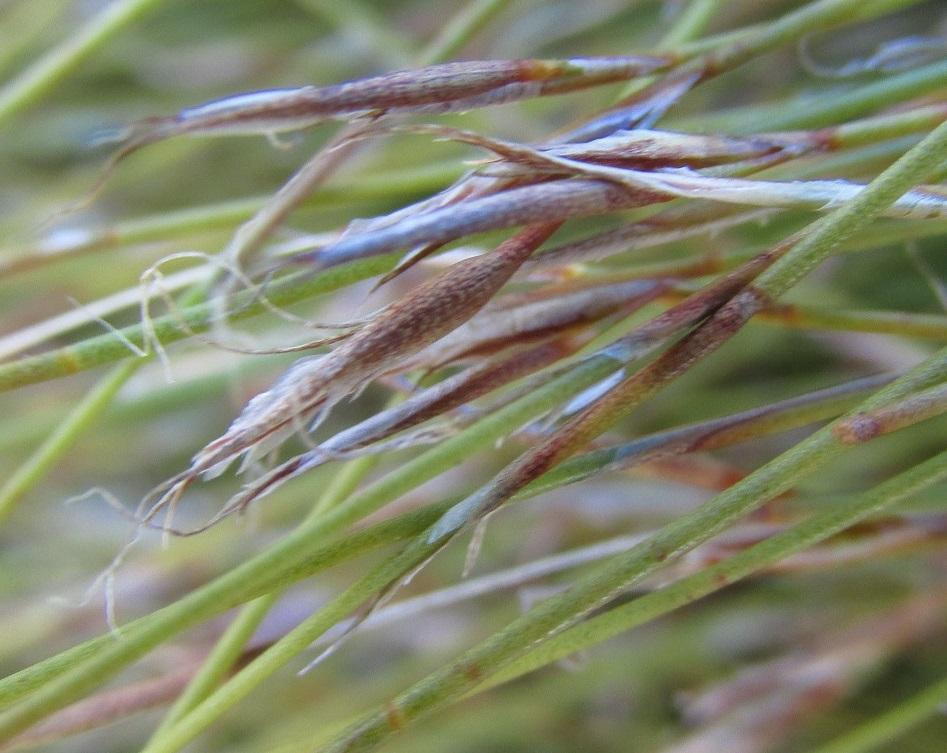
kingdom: Plantae
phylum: Tracheophyta
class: Liliopsida
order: Poales
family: Restionaceae
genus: Anthochortus
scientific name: Anthochortus crinalis
